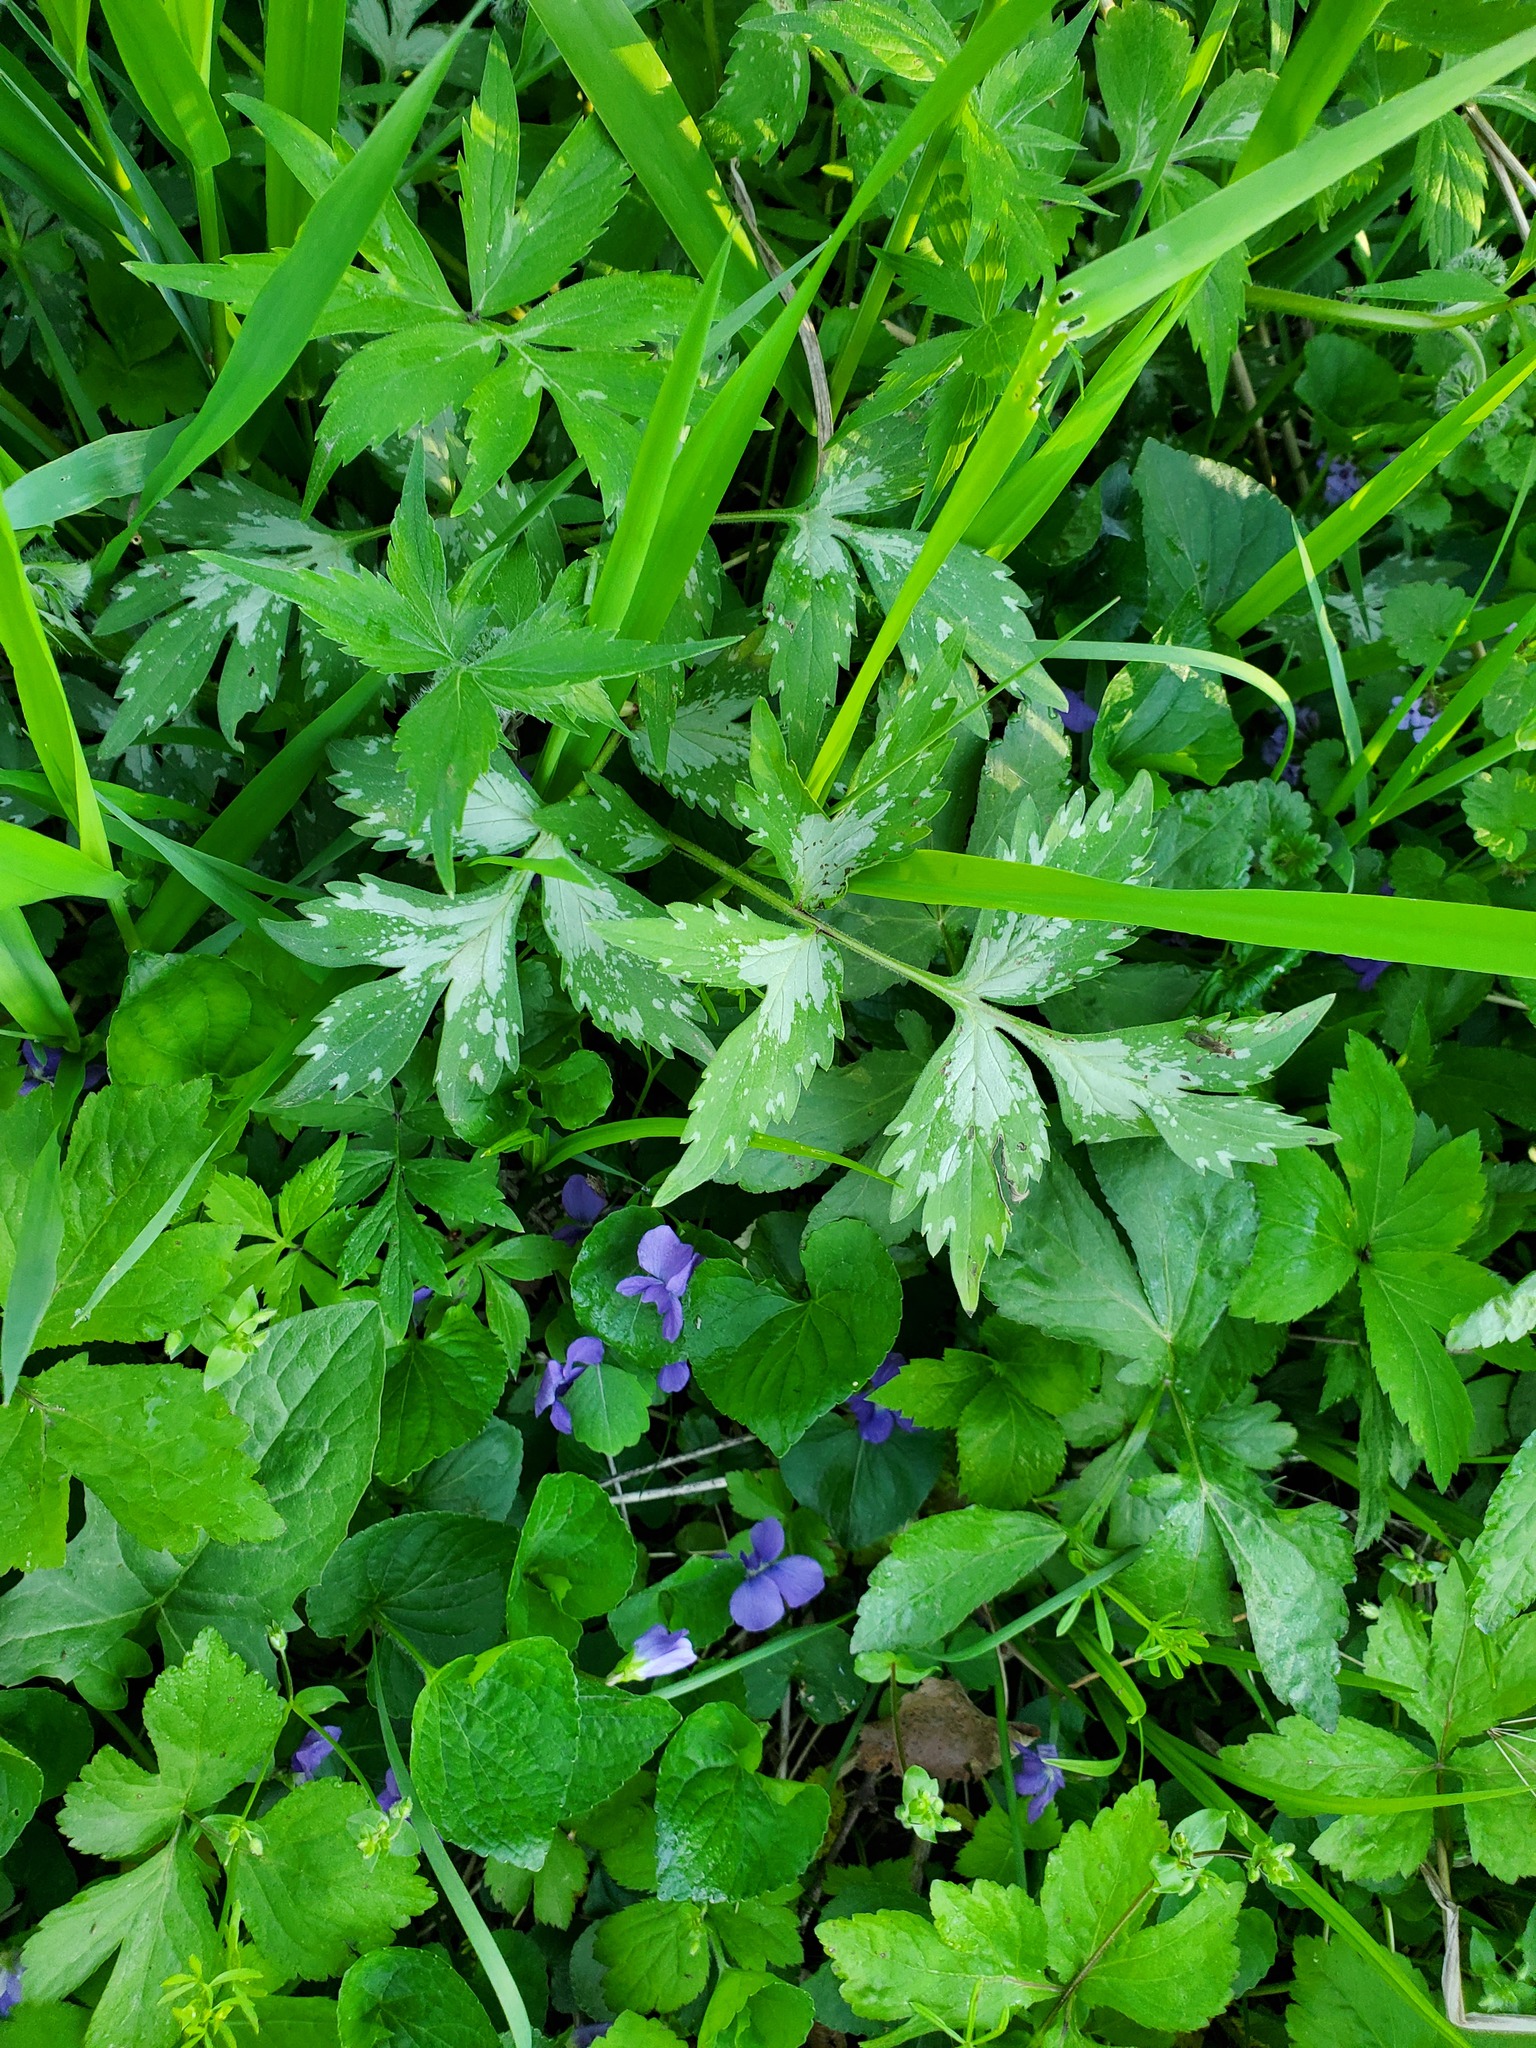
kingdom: Plantae
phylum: Tracheophyta
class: Magnoliopsida
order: Boraginales
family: Hydrophyllaceae
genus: Hydrophyllum
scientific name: Hydrophyllum virginianum
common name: Virginia waterleaf
